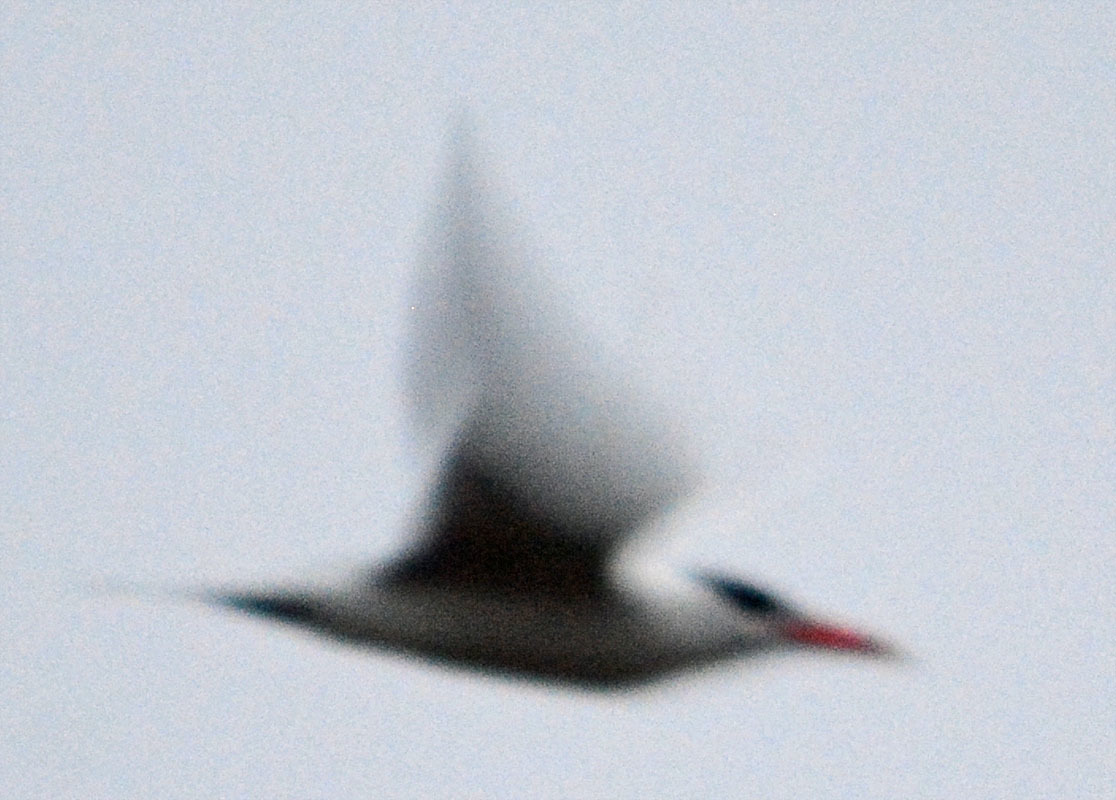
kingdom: Animalia
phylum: Chordata
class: Aves
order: Charadriiformes
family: Laridae
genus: Hydroprogne
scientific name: Hydroprogne caspia
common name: Caspian tern
